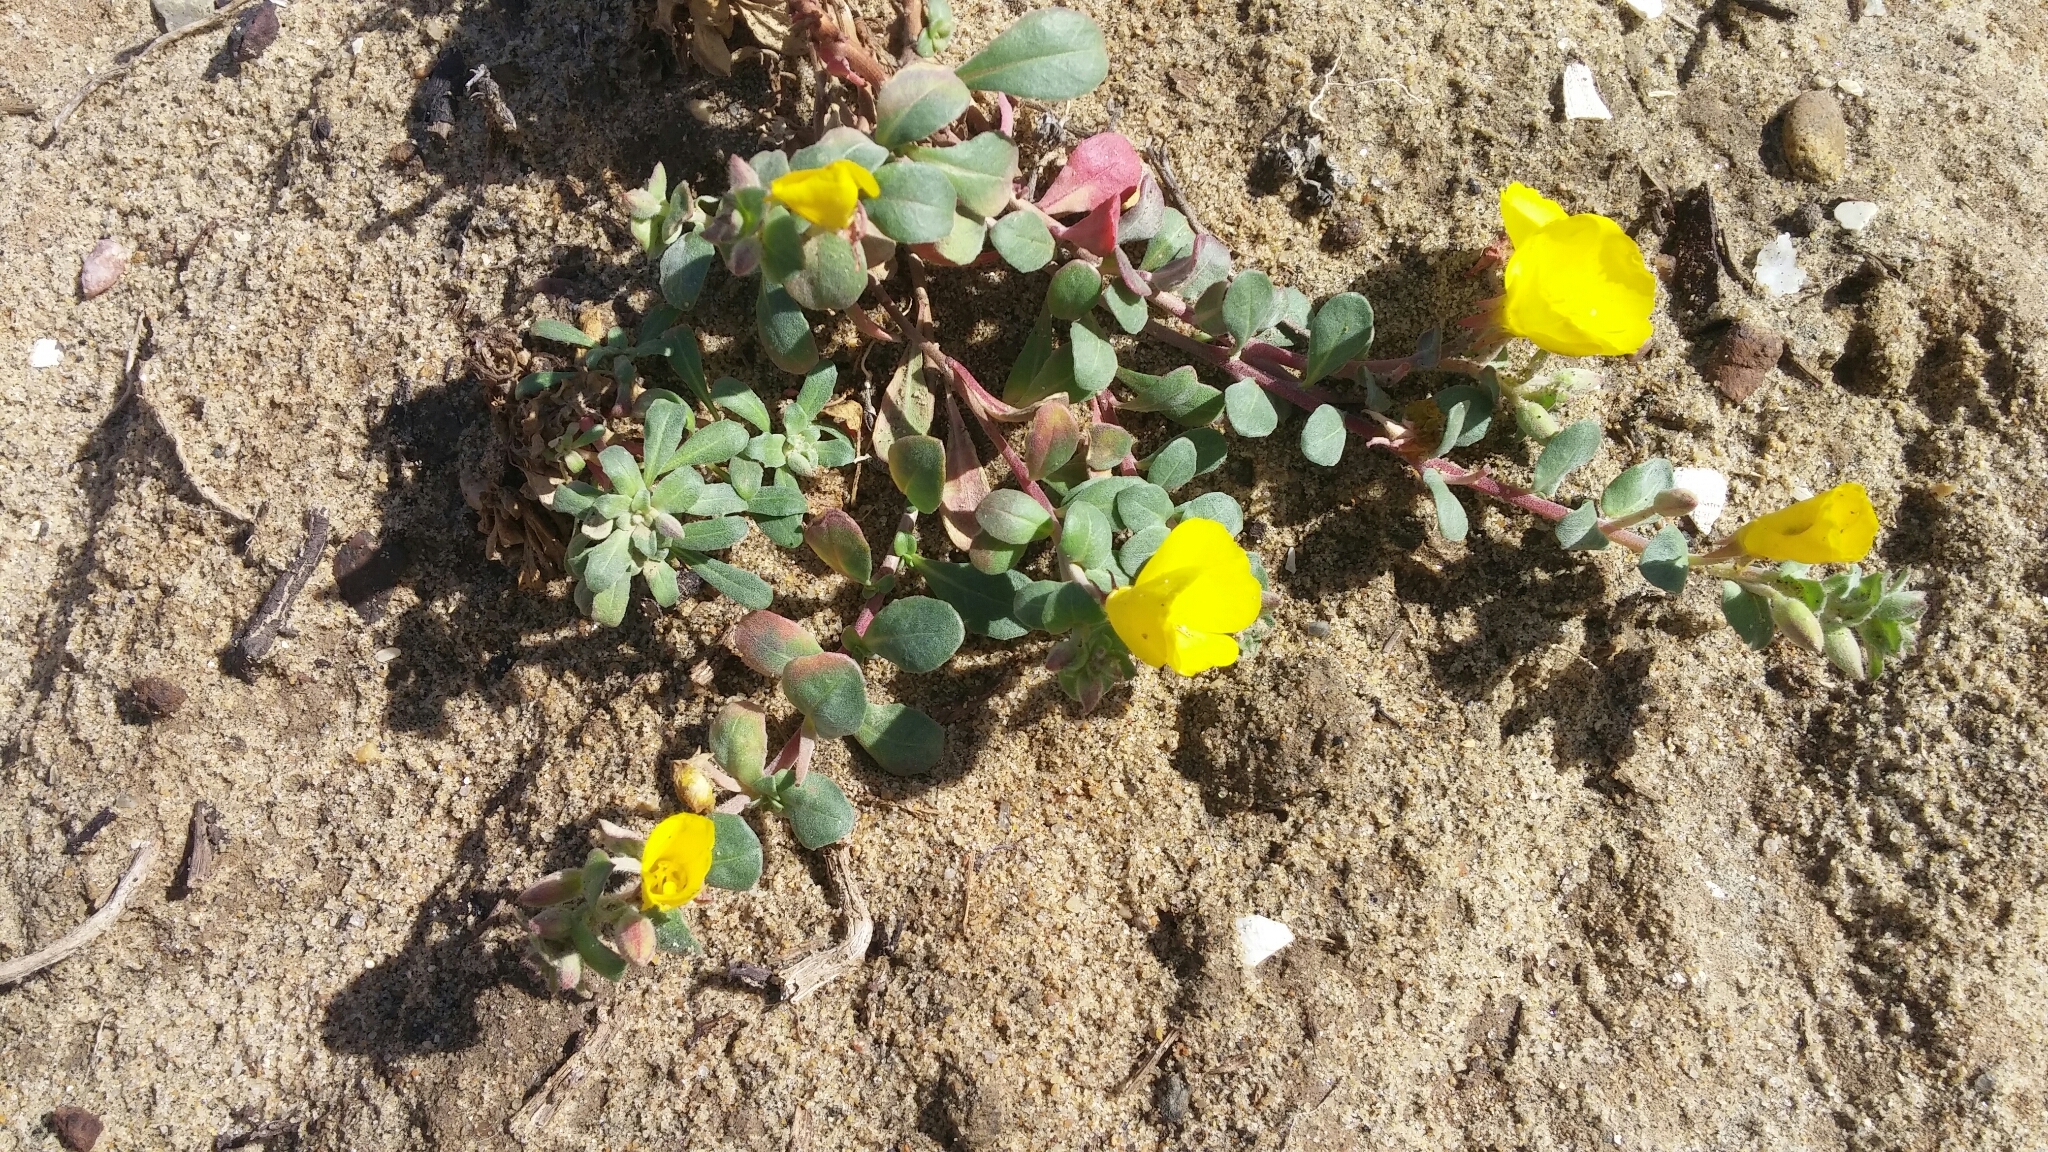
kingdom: Plantae
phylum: Tracheophyta
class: Magnoliopsida
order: Myrtales
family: Onagraceae
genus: Camissoniopsis
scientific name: Camissoniopsis cheiranthifolia
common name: Beach suncup
